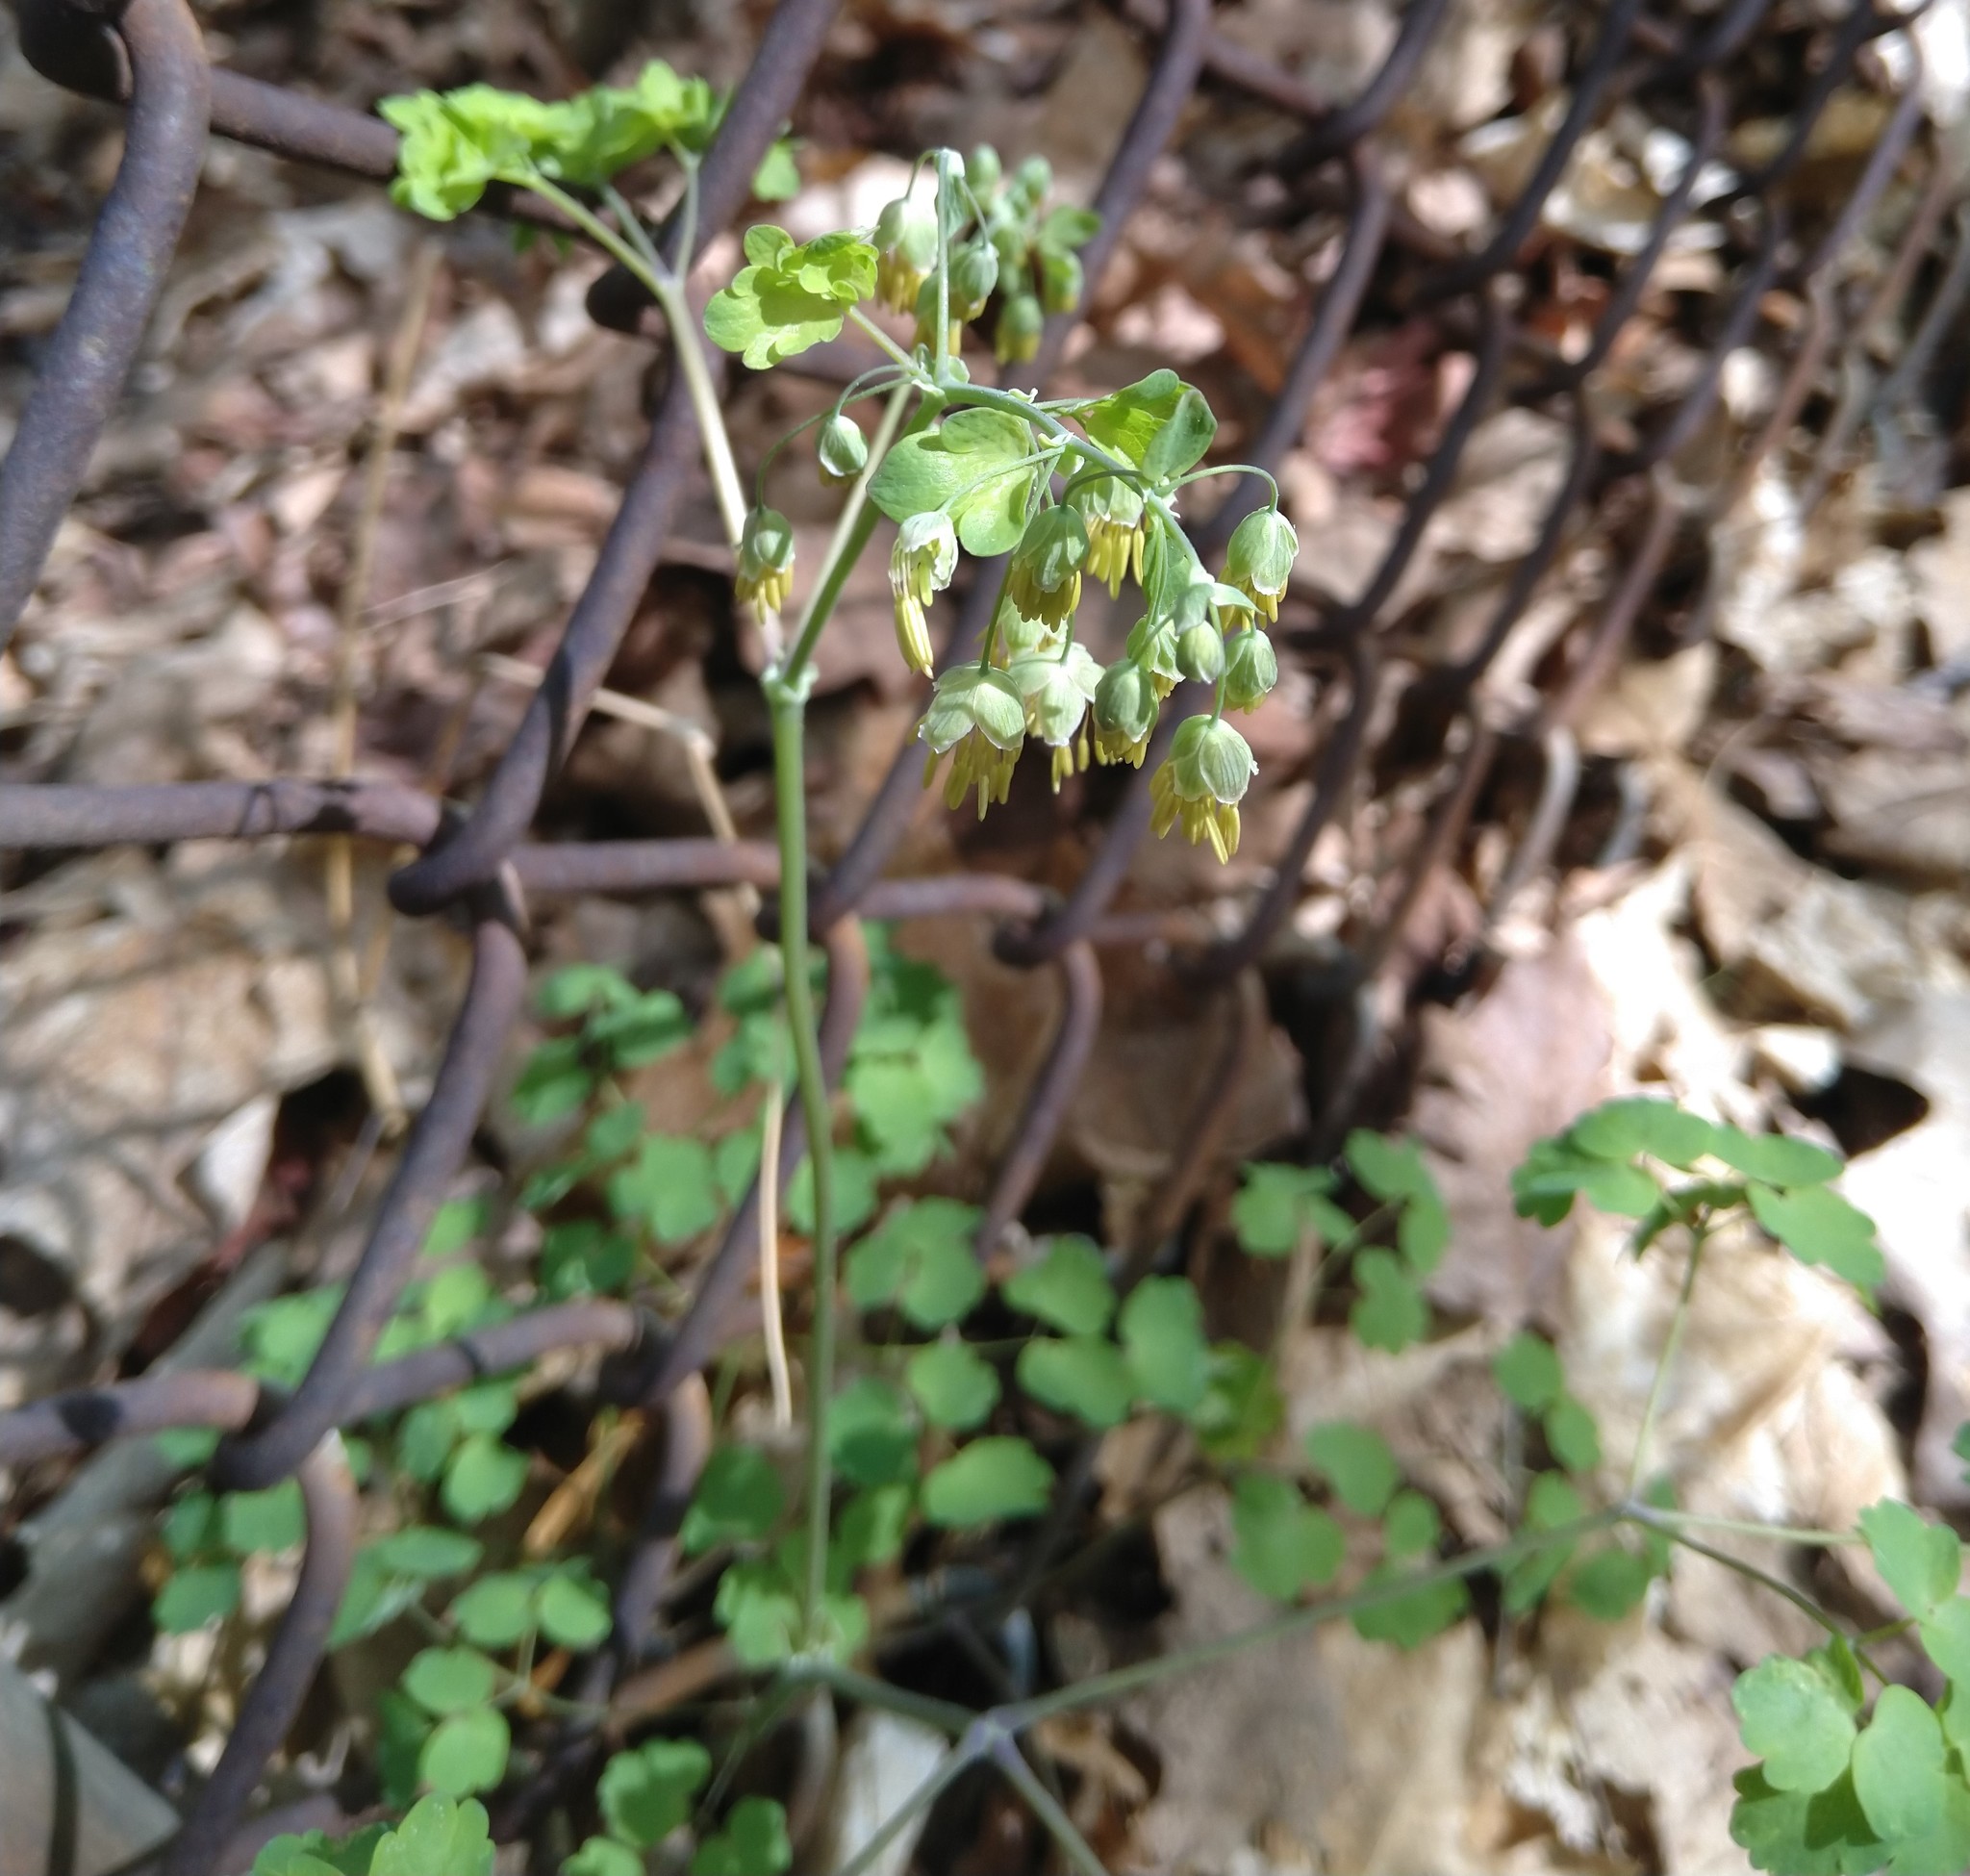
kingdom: Plantae
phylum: Tracheophyta
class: Magnoliopsida
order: Ranunculales
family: Ranunculaceae
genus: Thalictrum
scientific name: Thalictrum dioicum
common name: Early meadow-rue
